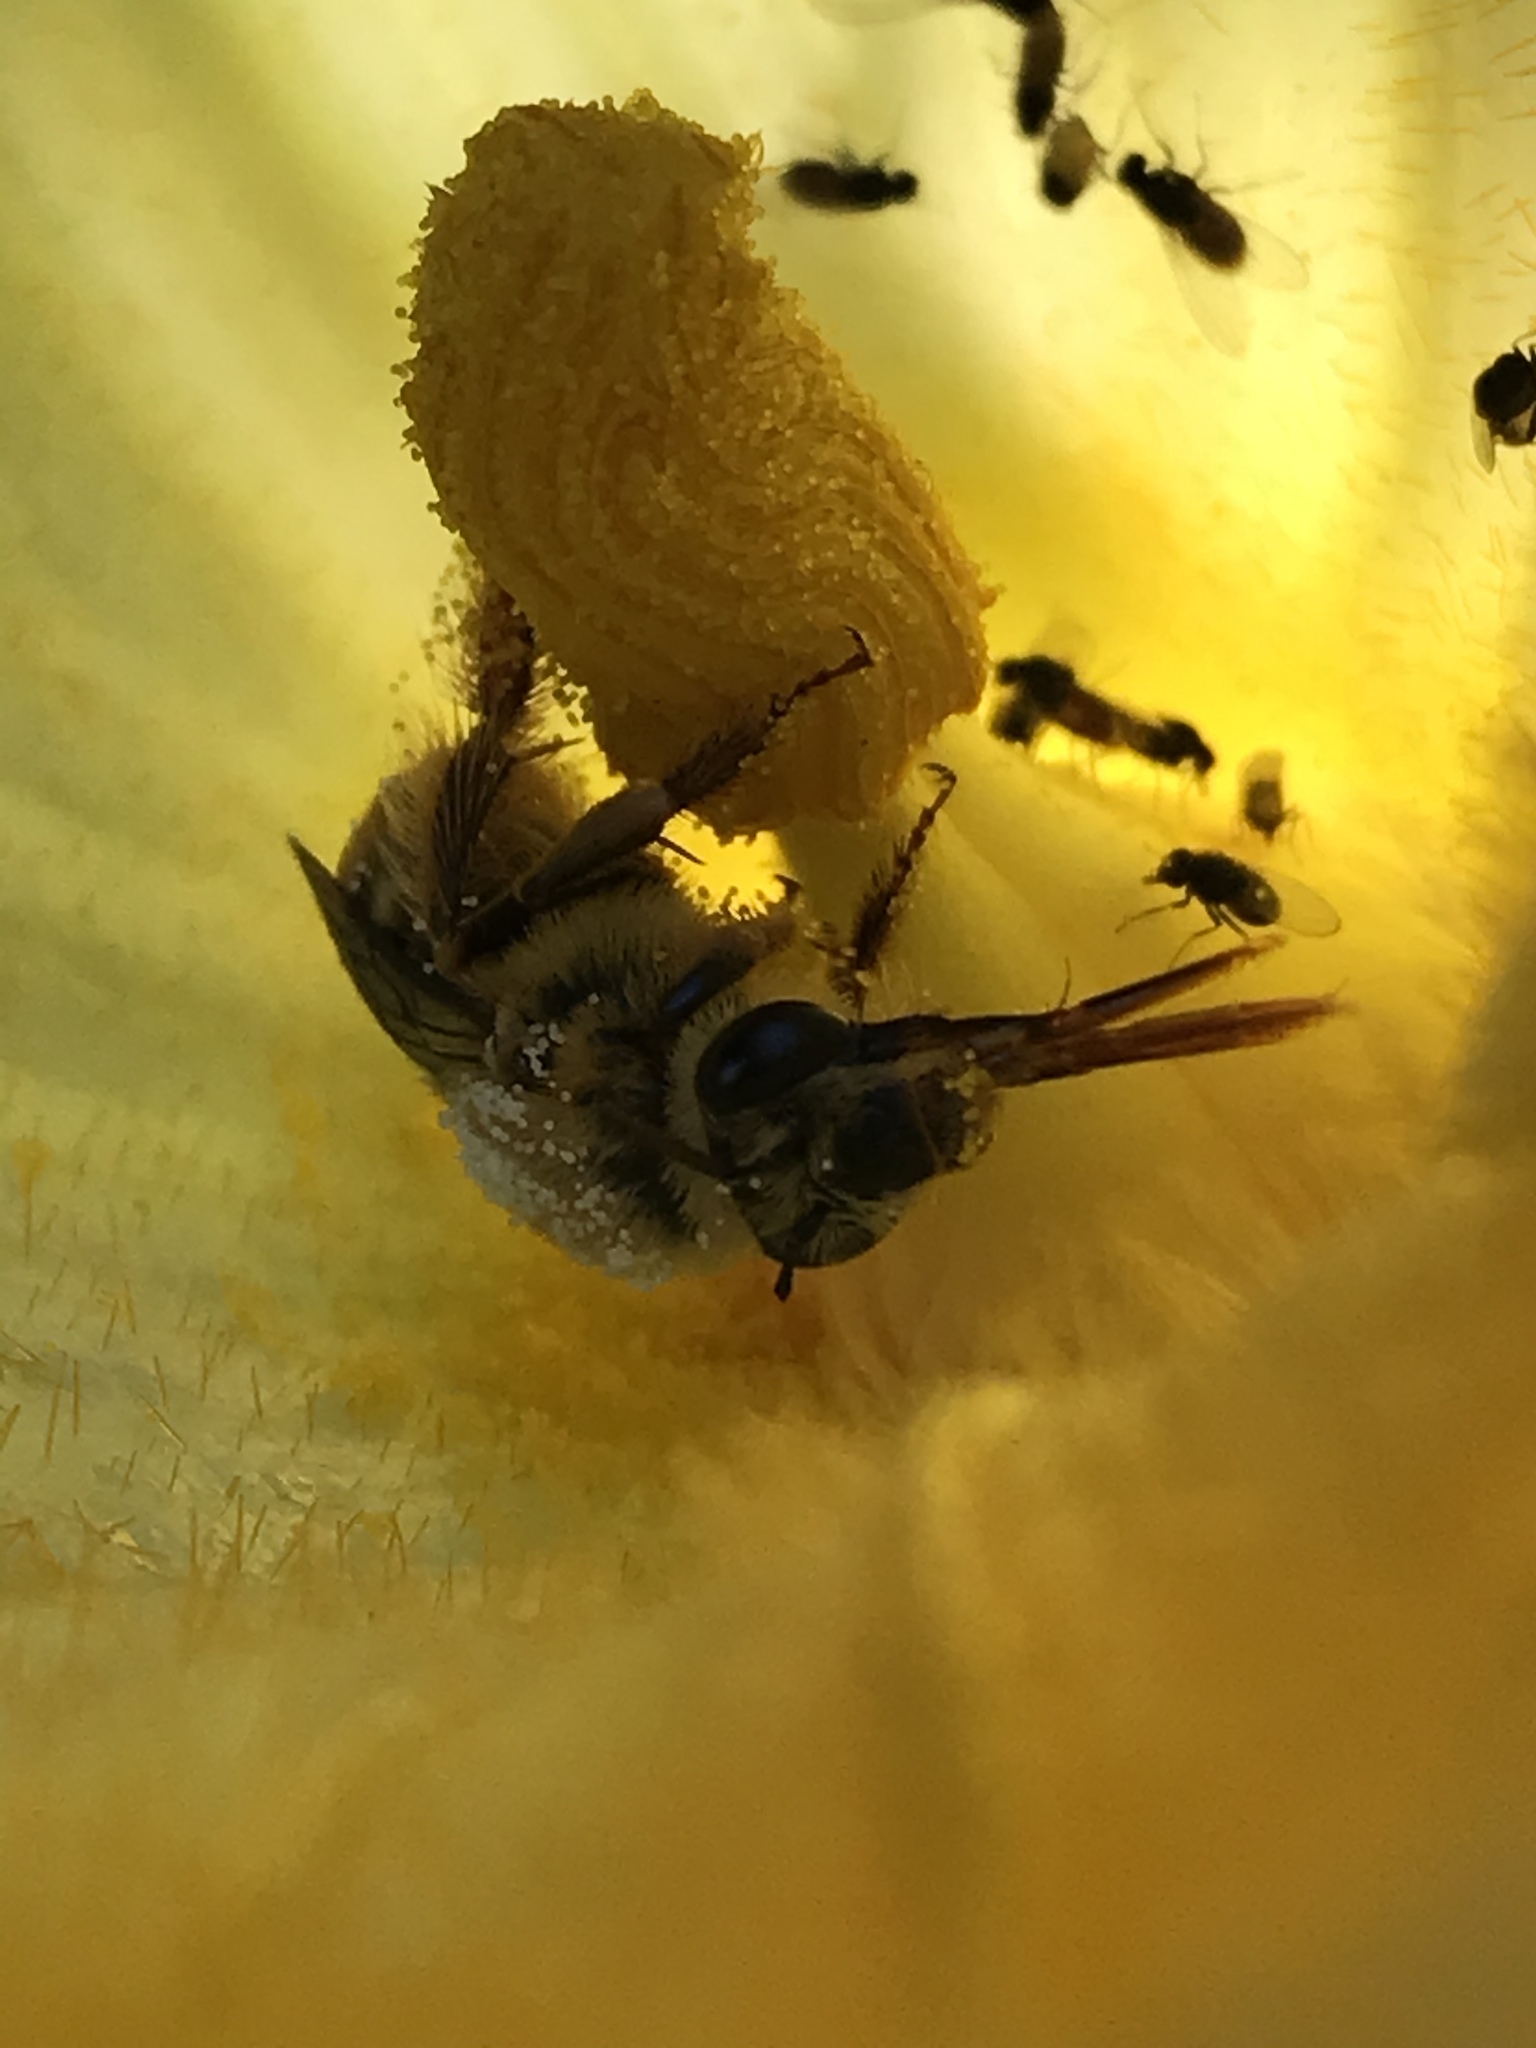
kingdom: Animalia
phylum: Arthropoda
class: Insecta
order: Hymenoptera
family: Apidae
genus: Peponapis
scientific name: Peponapis pruinosa
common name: Pruinose squash bee
